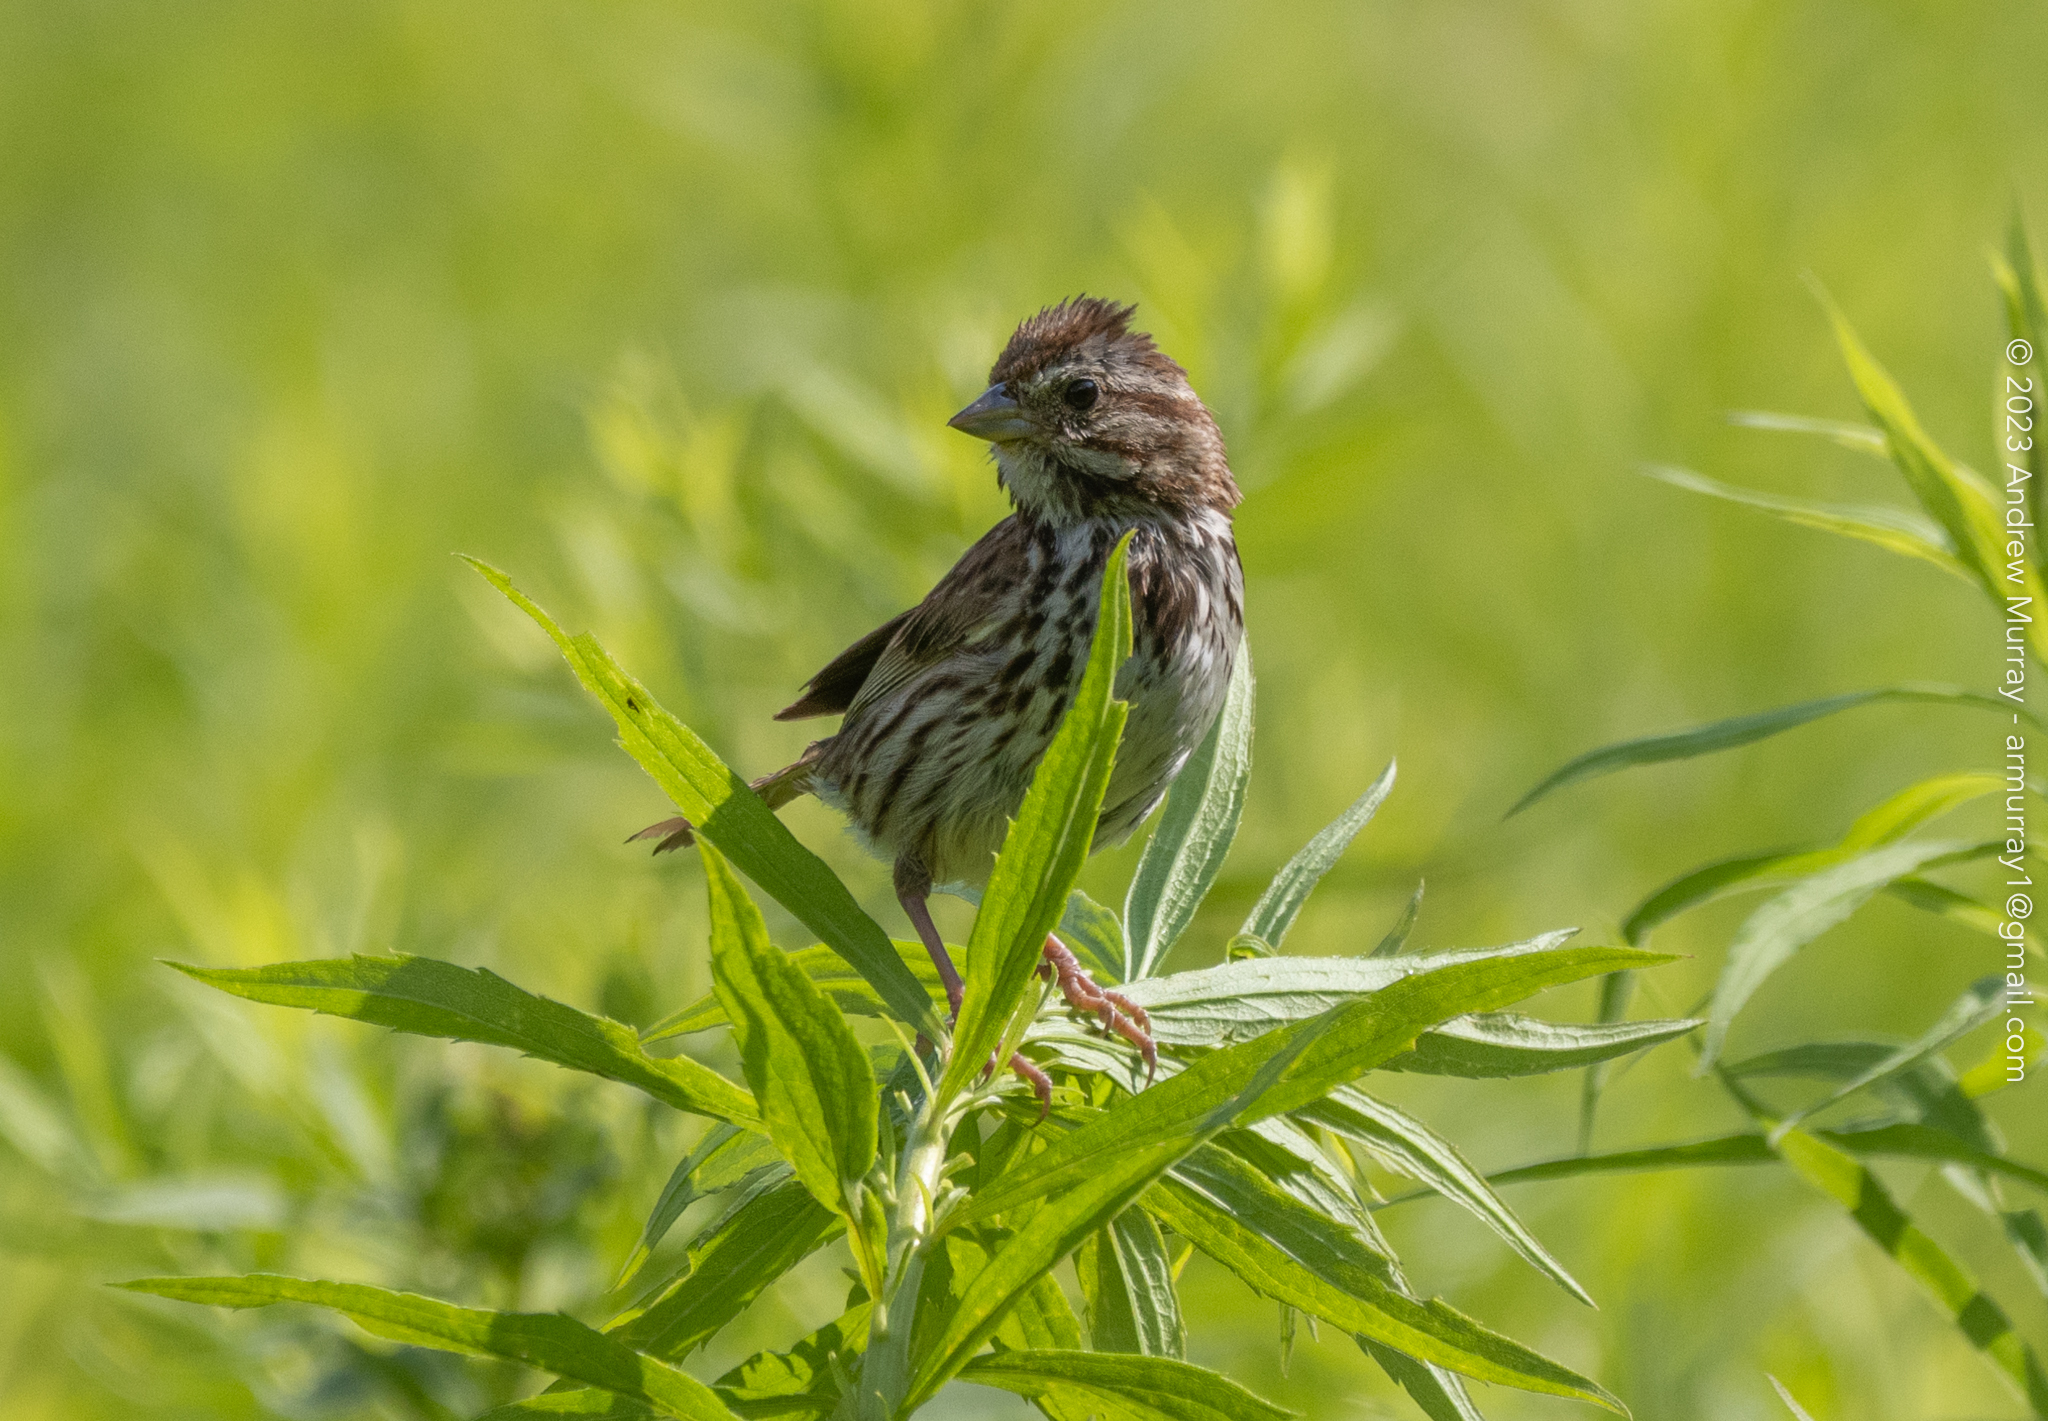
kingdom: Animalia
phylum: Chordata
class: Aves
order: Passeriformes
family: Passerellidae
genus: Melospiza
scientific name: Melospiza melodia
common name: Song sparrow
